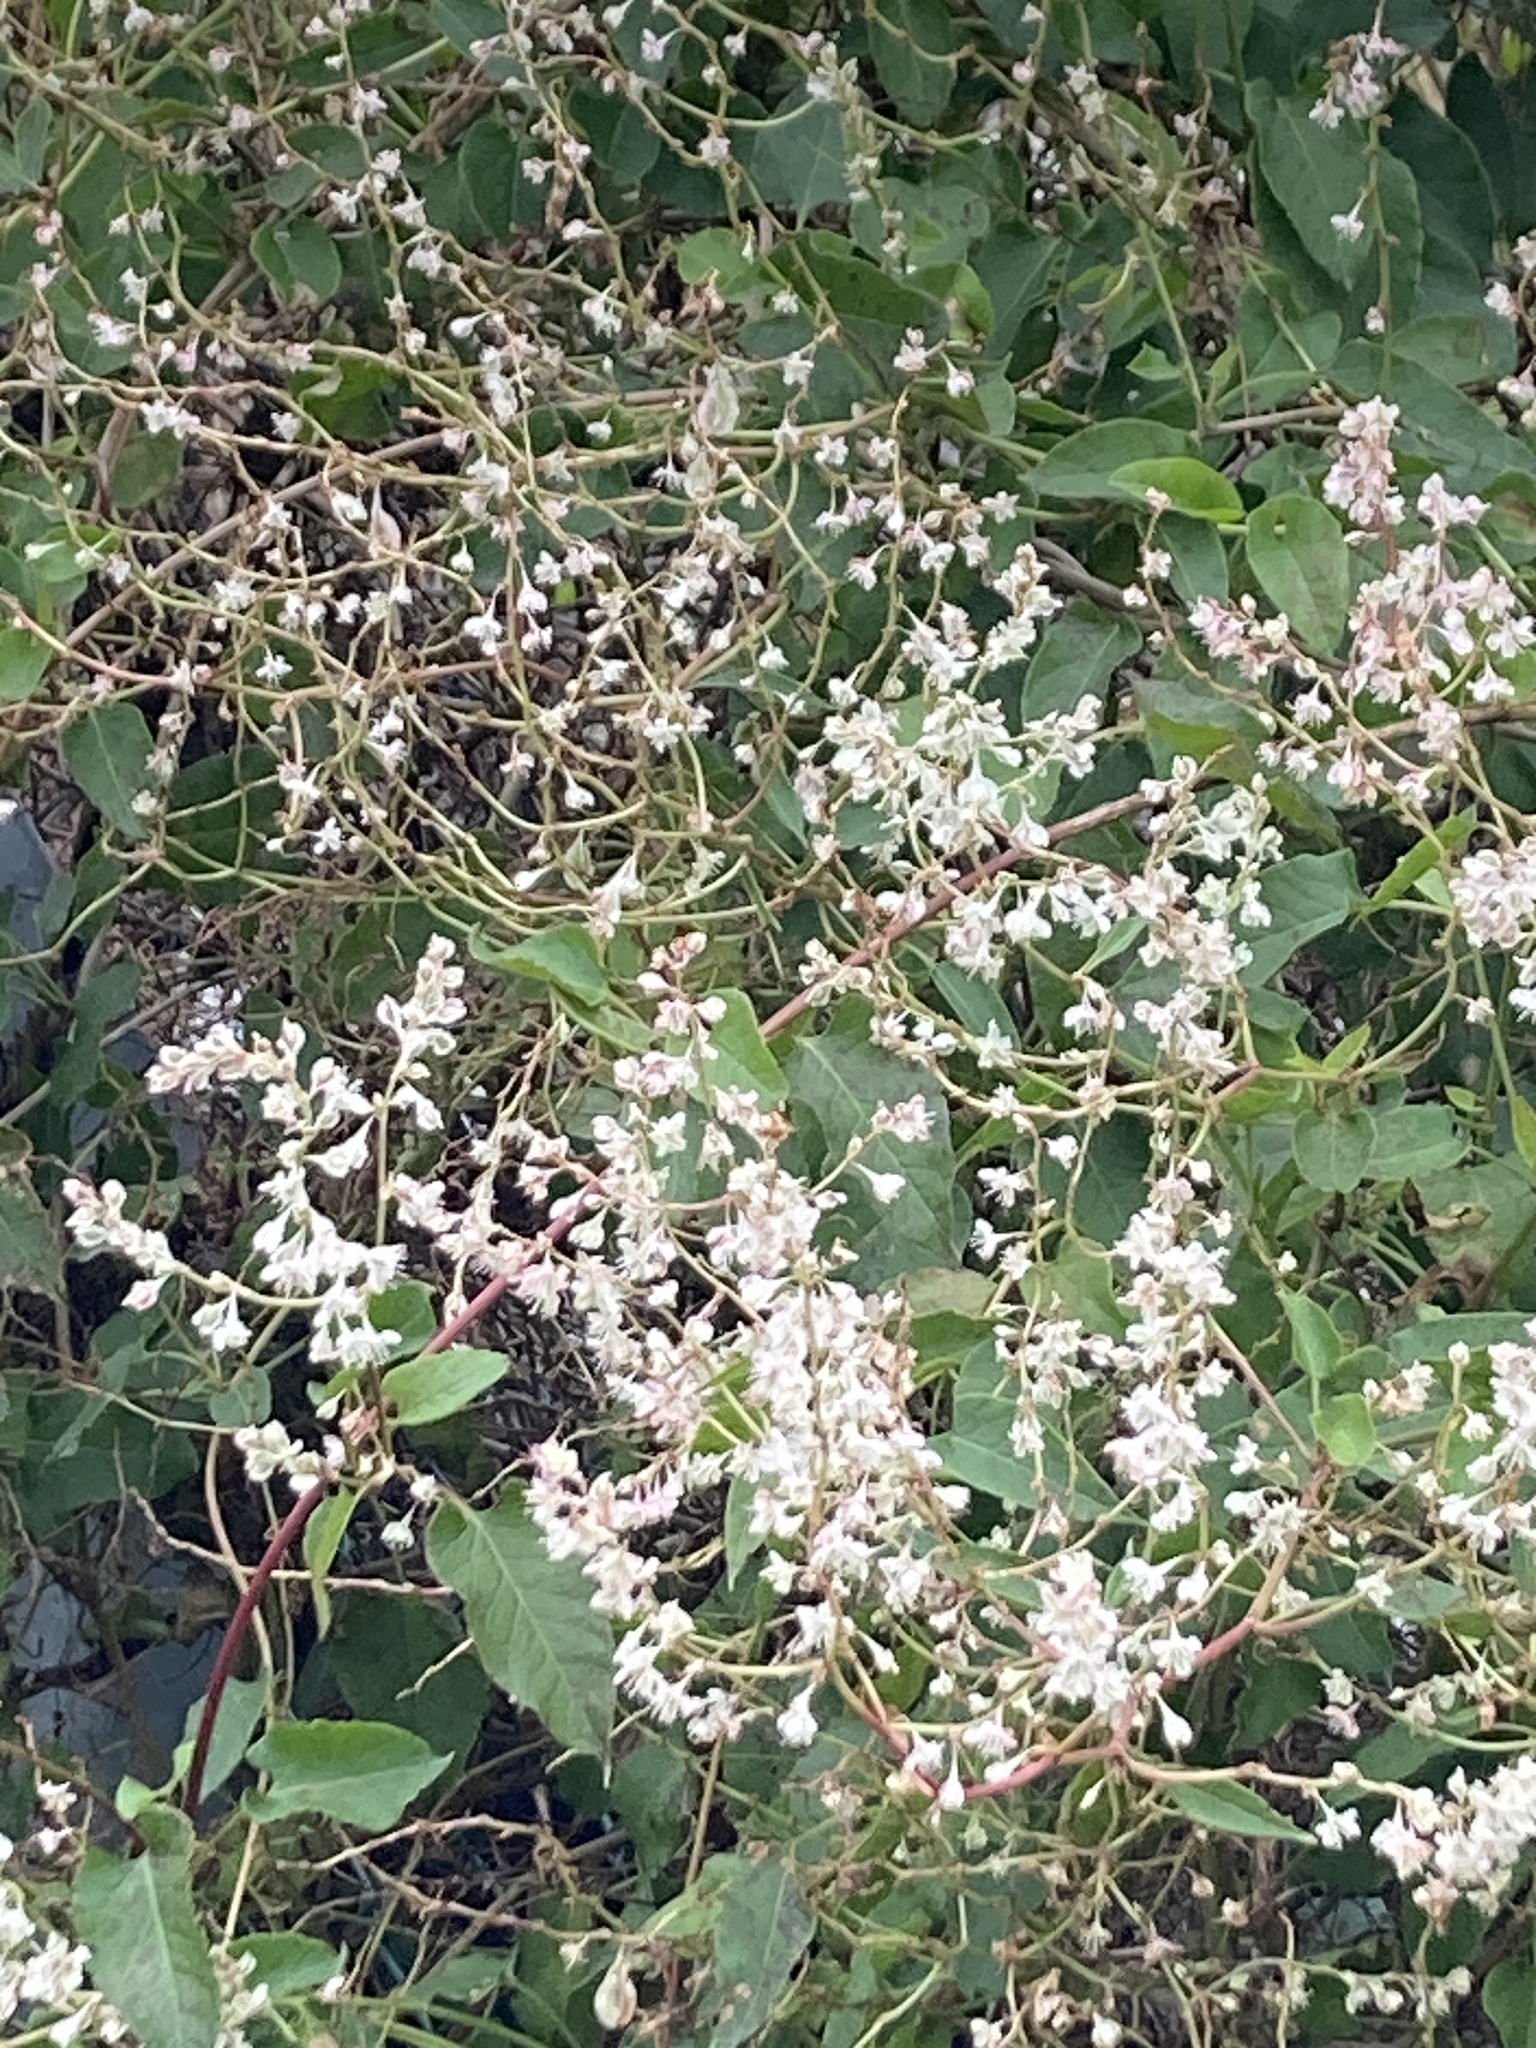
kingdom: Plantae
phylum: Tracheophyta
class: Magnoliopsida
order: Caryophyllales
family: Polygonaceae
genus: Fallopia
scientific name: Fallopia baldschuanica
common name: Russian-vine
